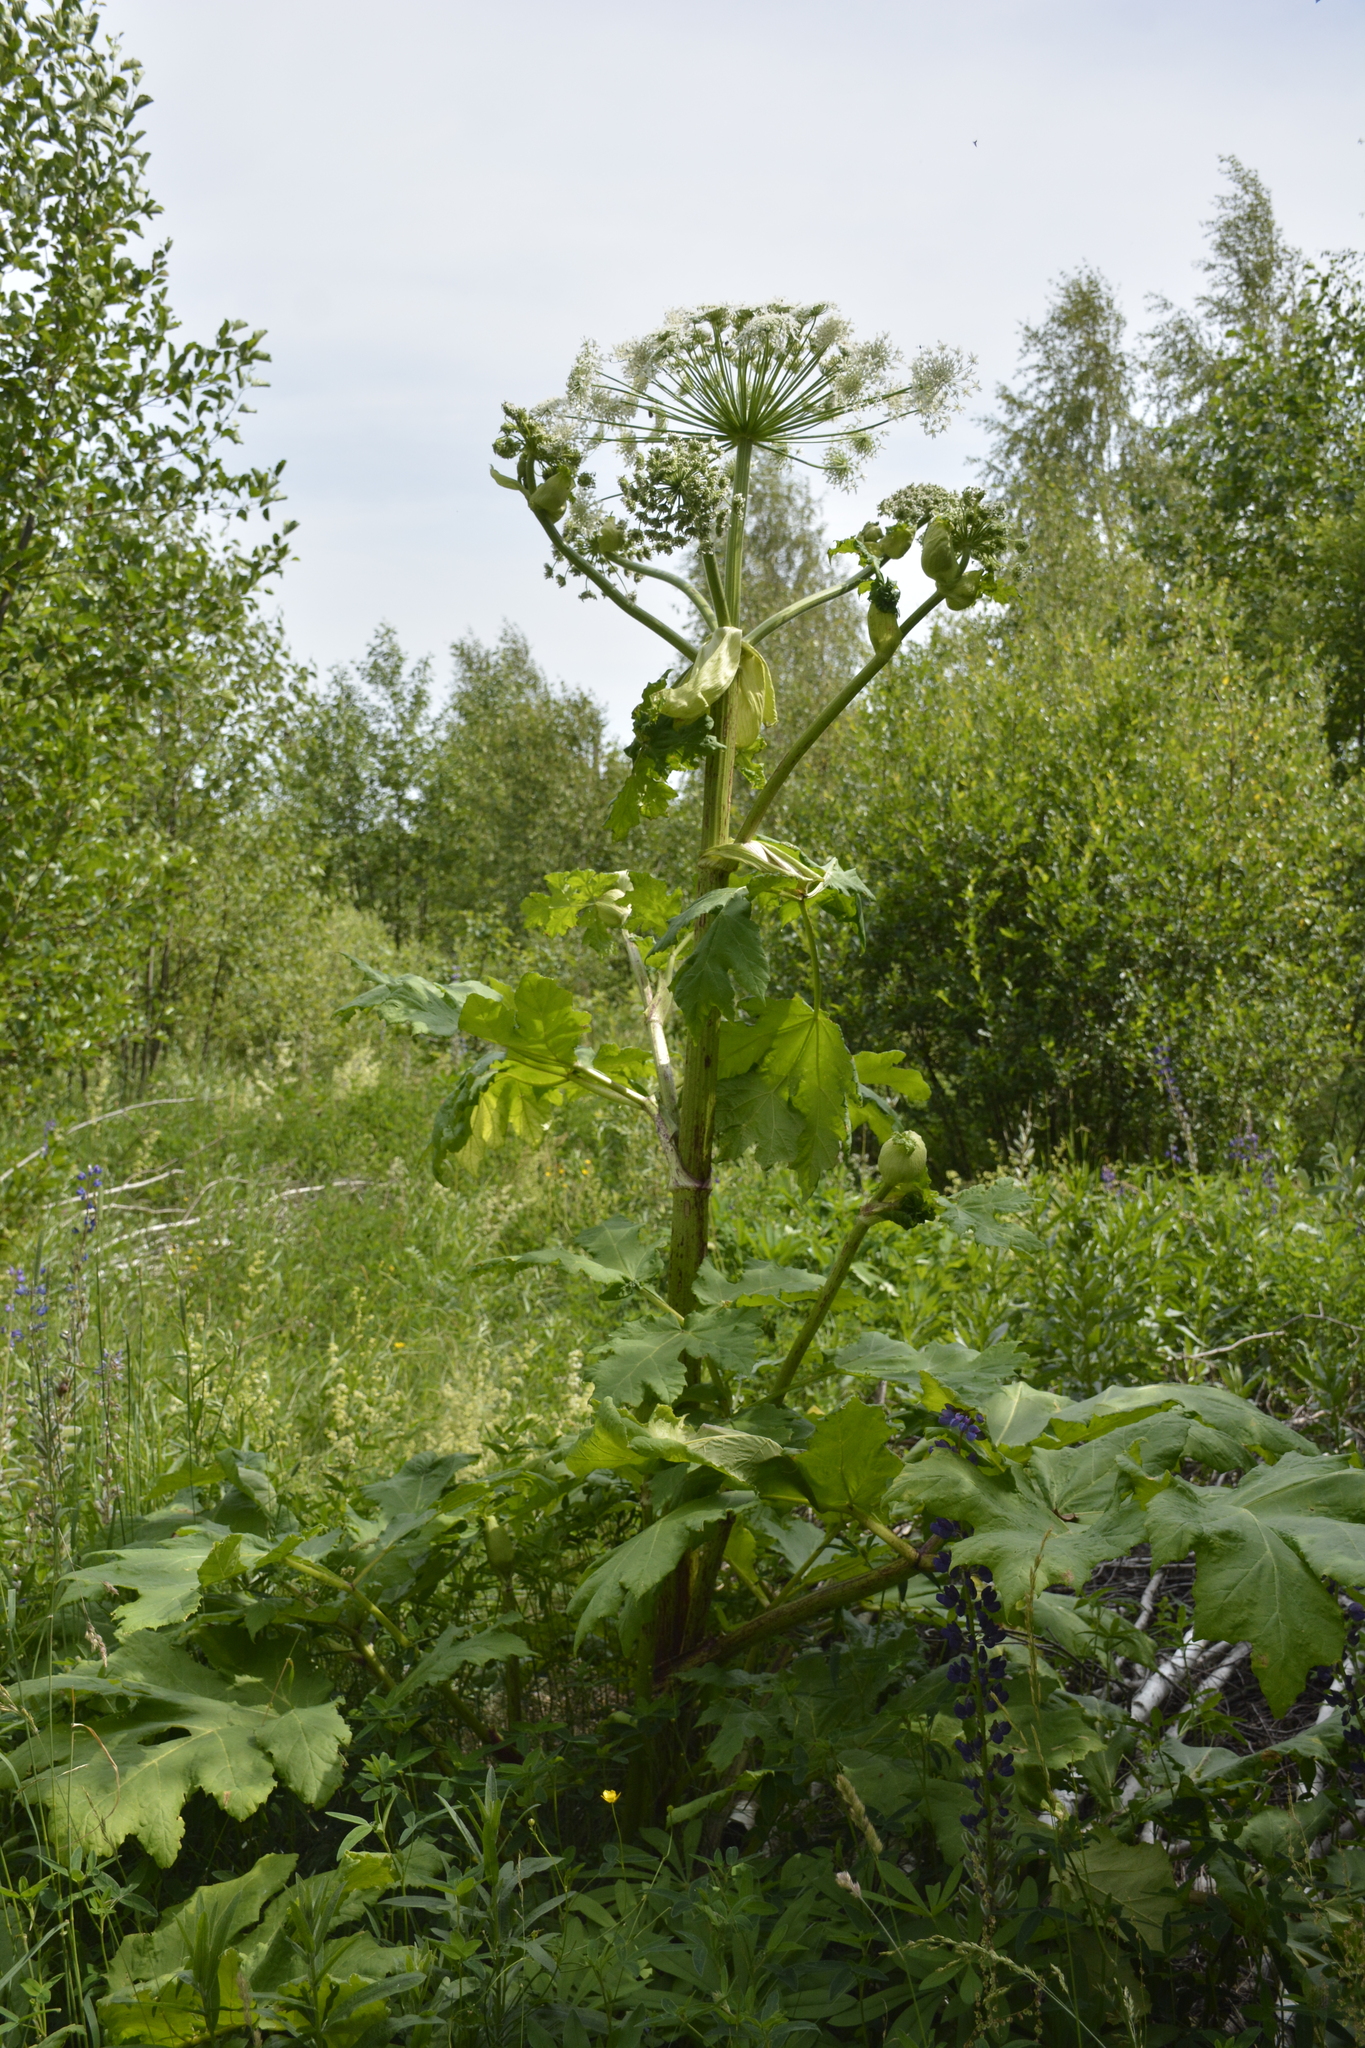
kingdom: Plantae
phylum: Tracheophyta
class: Magnoliopsida
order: Apiales
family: Apiaceae
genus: Heracleum
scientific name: Heracleum sosnowskyi
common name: Sosnowsky's hogweed
